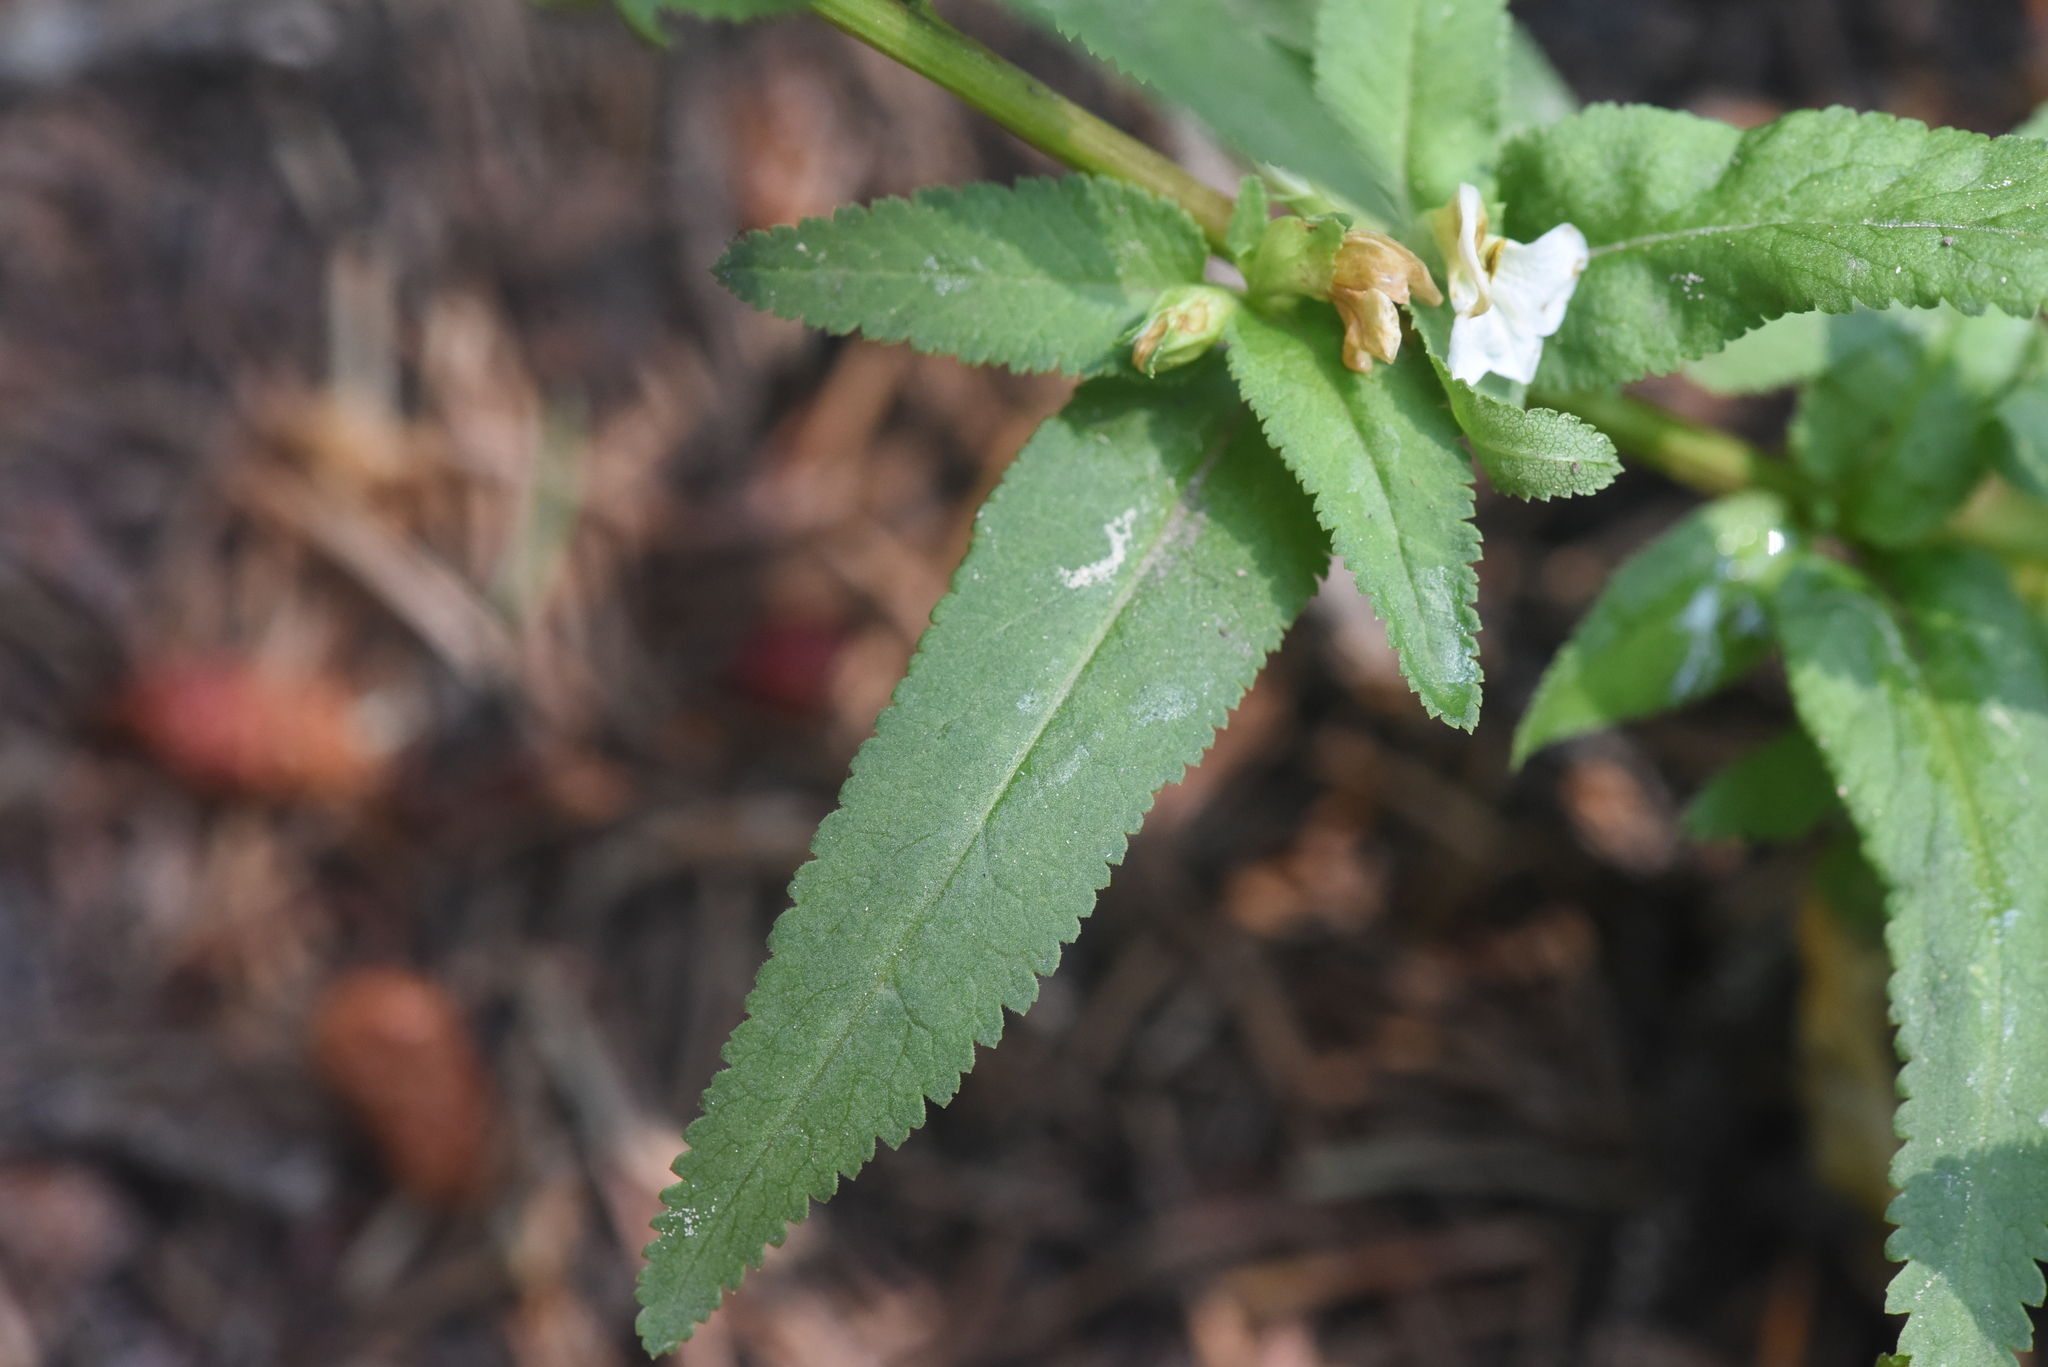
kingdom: Plantae
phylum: Tracheophyta
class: Magnoliopsida
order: Lamiales
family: Orobanchaceae
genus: Pedicularis
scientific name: Pedicularis racemosa
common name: Leafy lousewort
